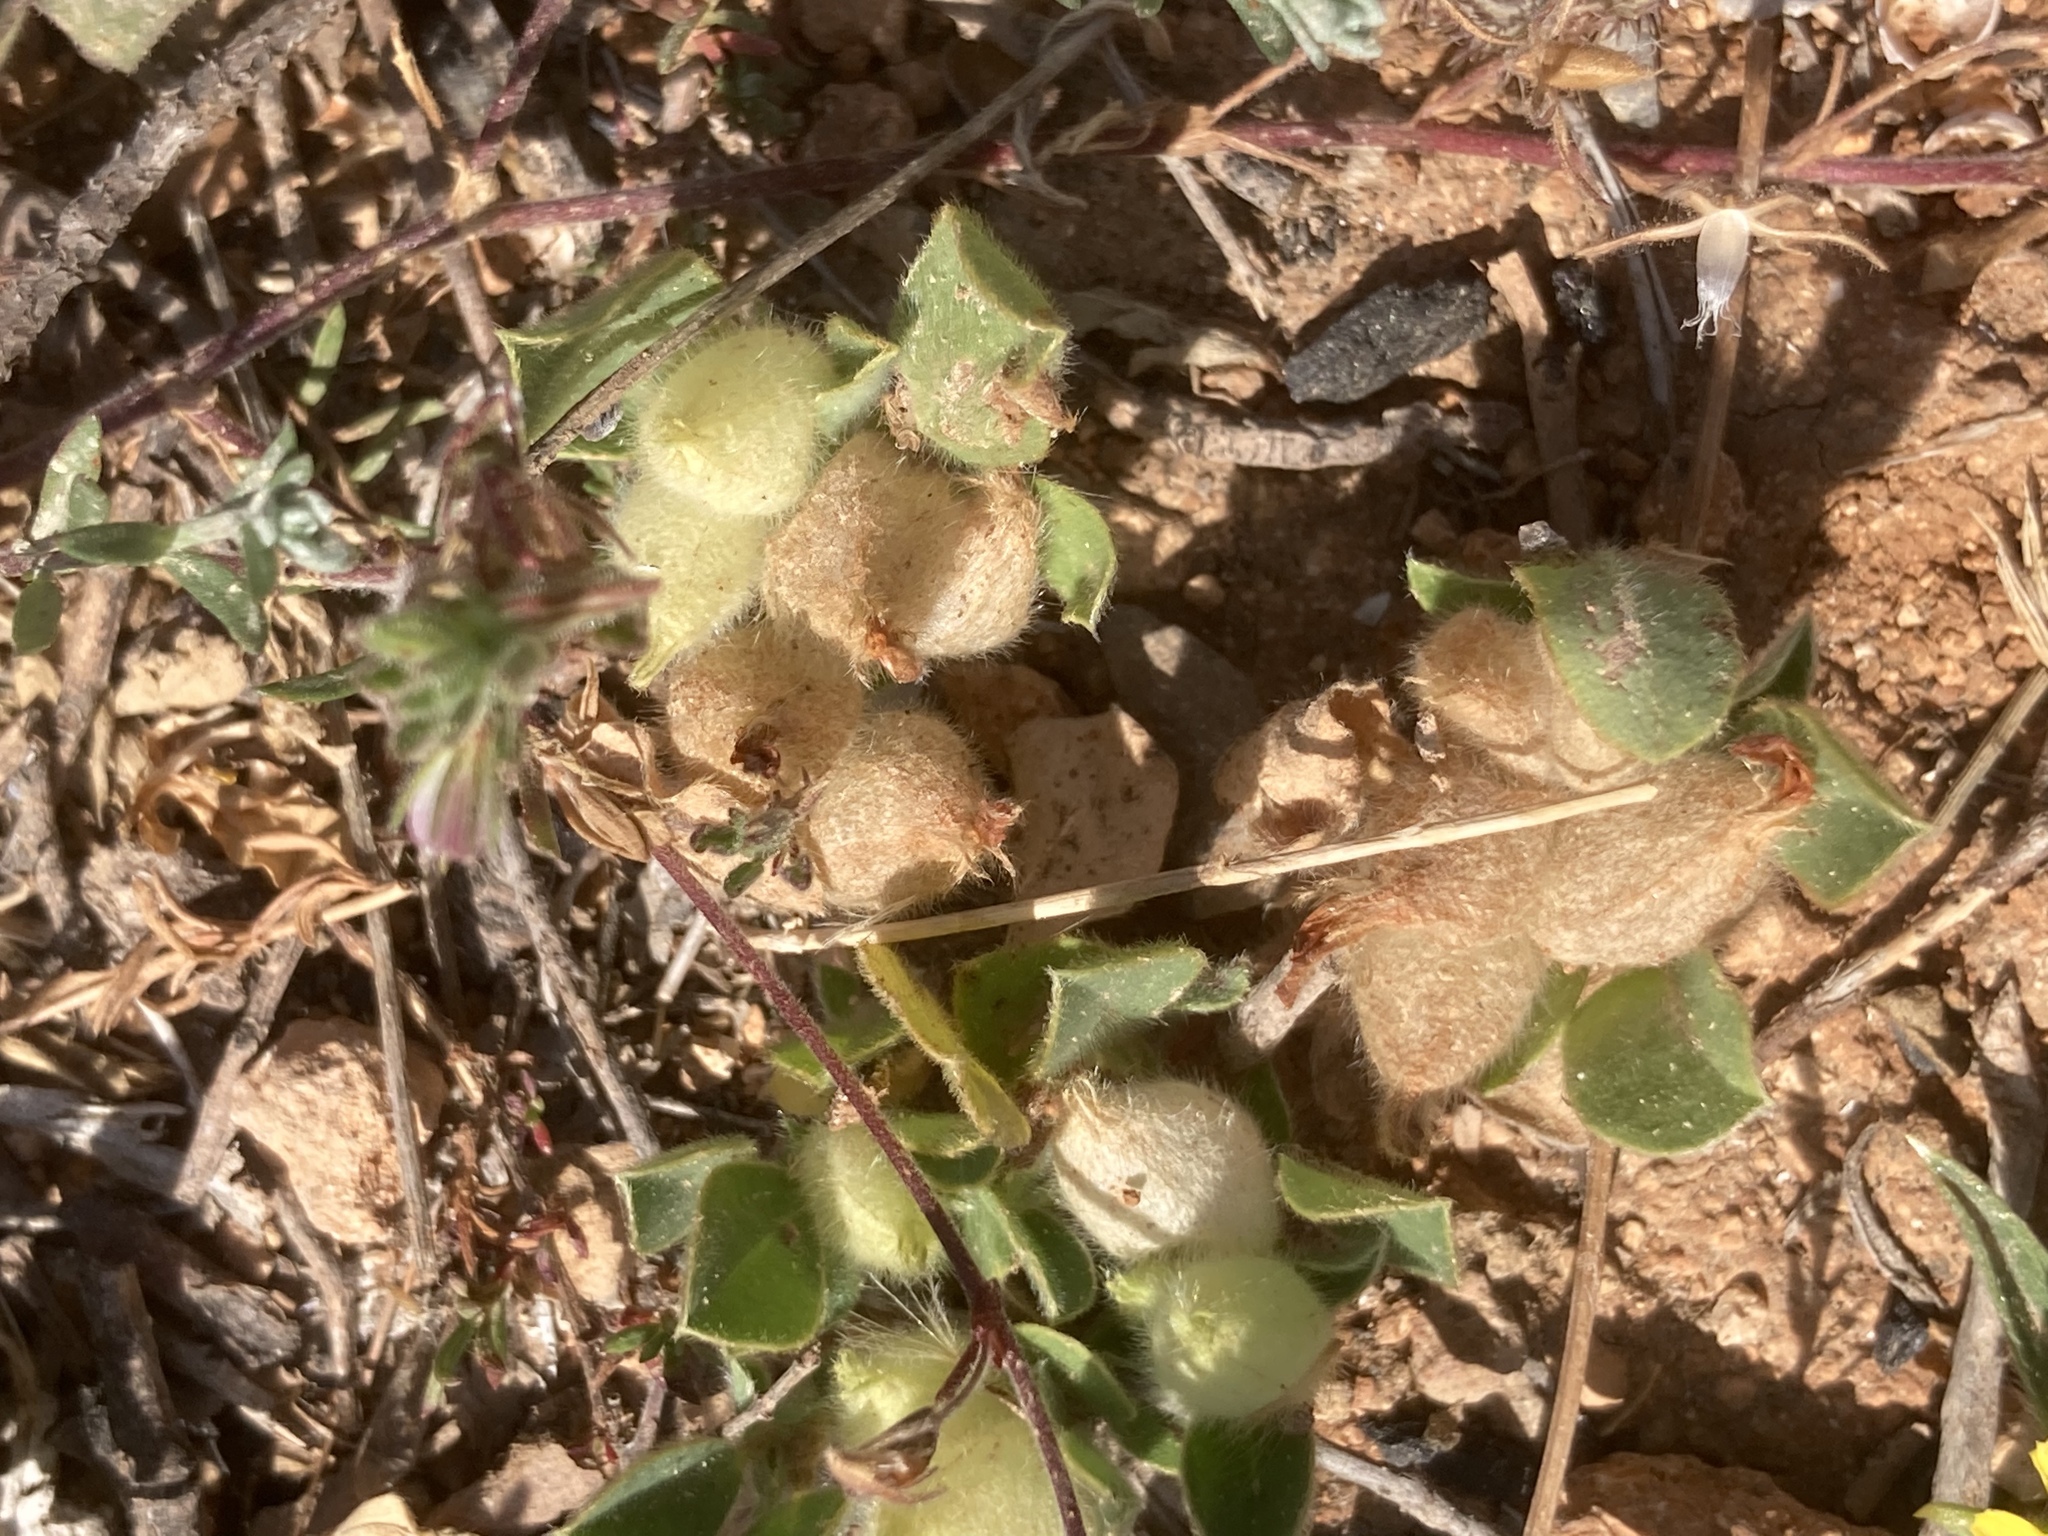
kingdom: Plantae
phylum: Tracheophyta
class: Magnoliopsida
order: Fabales
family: Fabaceae
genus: Tripodion
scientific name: Tripodion tetraphyllum
